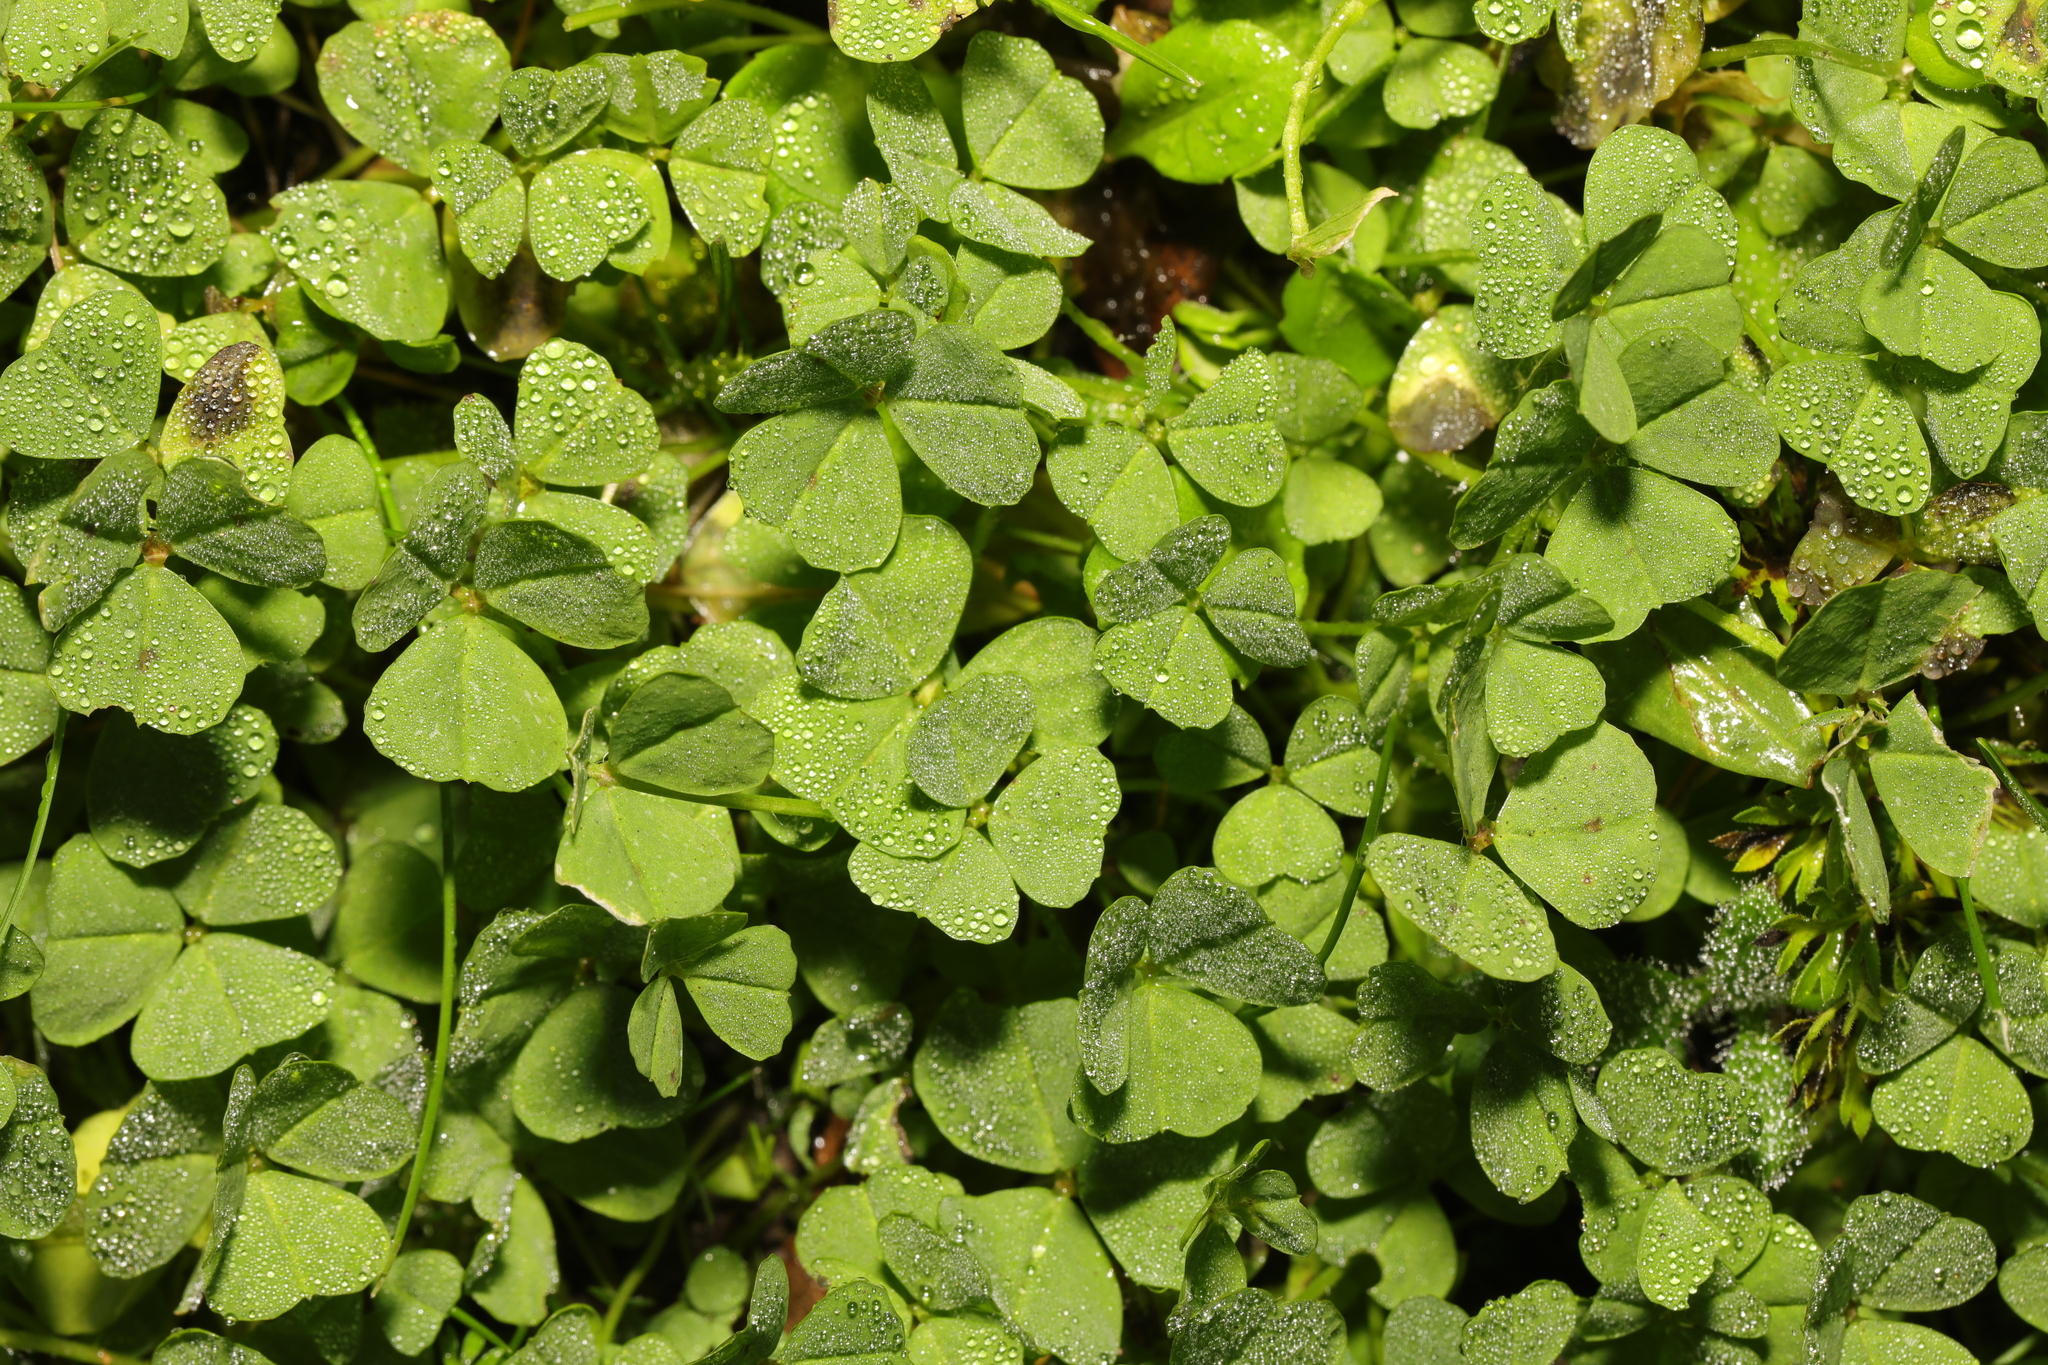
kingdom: Plantae
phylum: Tracheophyta
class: Magnoliopsida
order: Fabales
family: Fabaceae
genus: Trifolium
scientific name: Trifolium repens
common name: White clover
